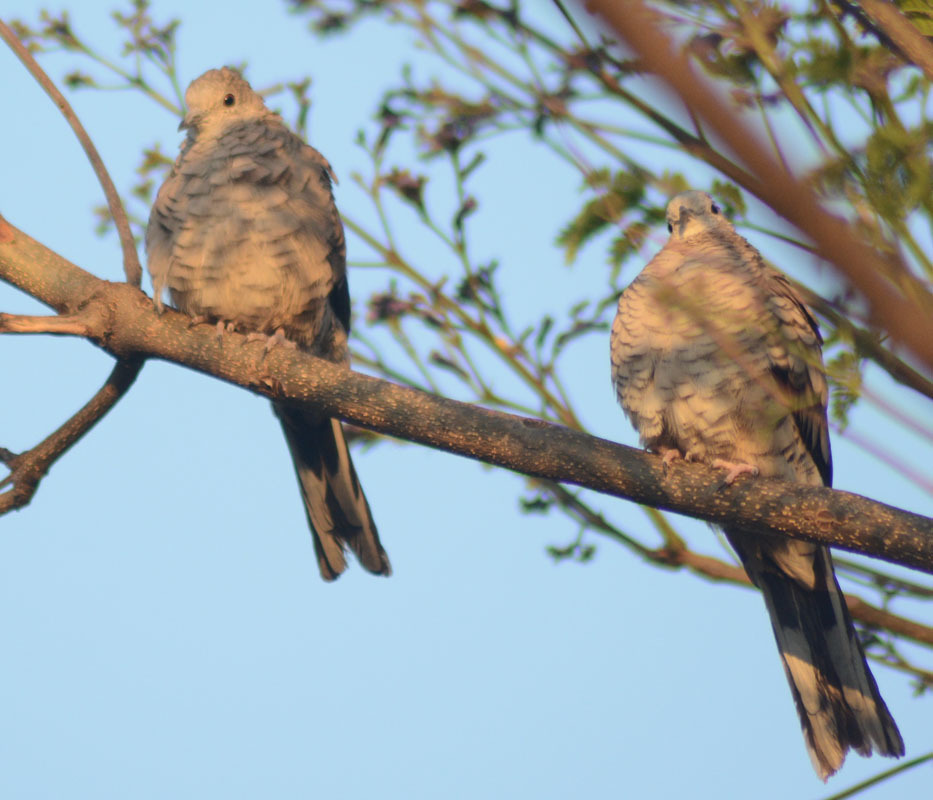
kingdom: Animalia
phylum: Chordata
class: Aves
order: Columbiformes
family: Columbidae
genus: Columbina
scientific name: Columbina inca
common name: Inca dove
